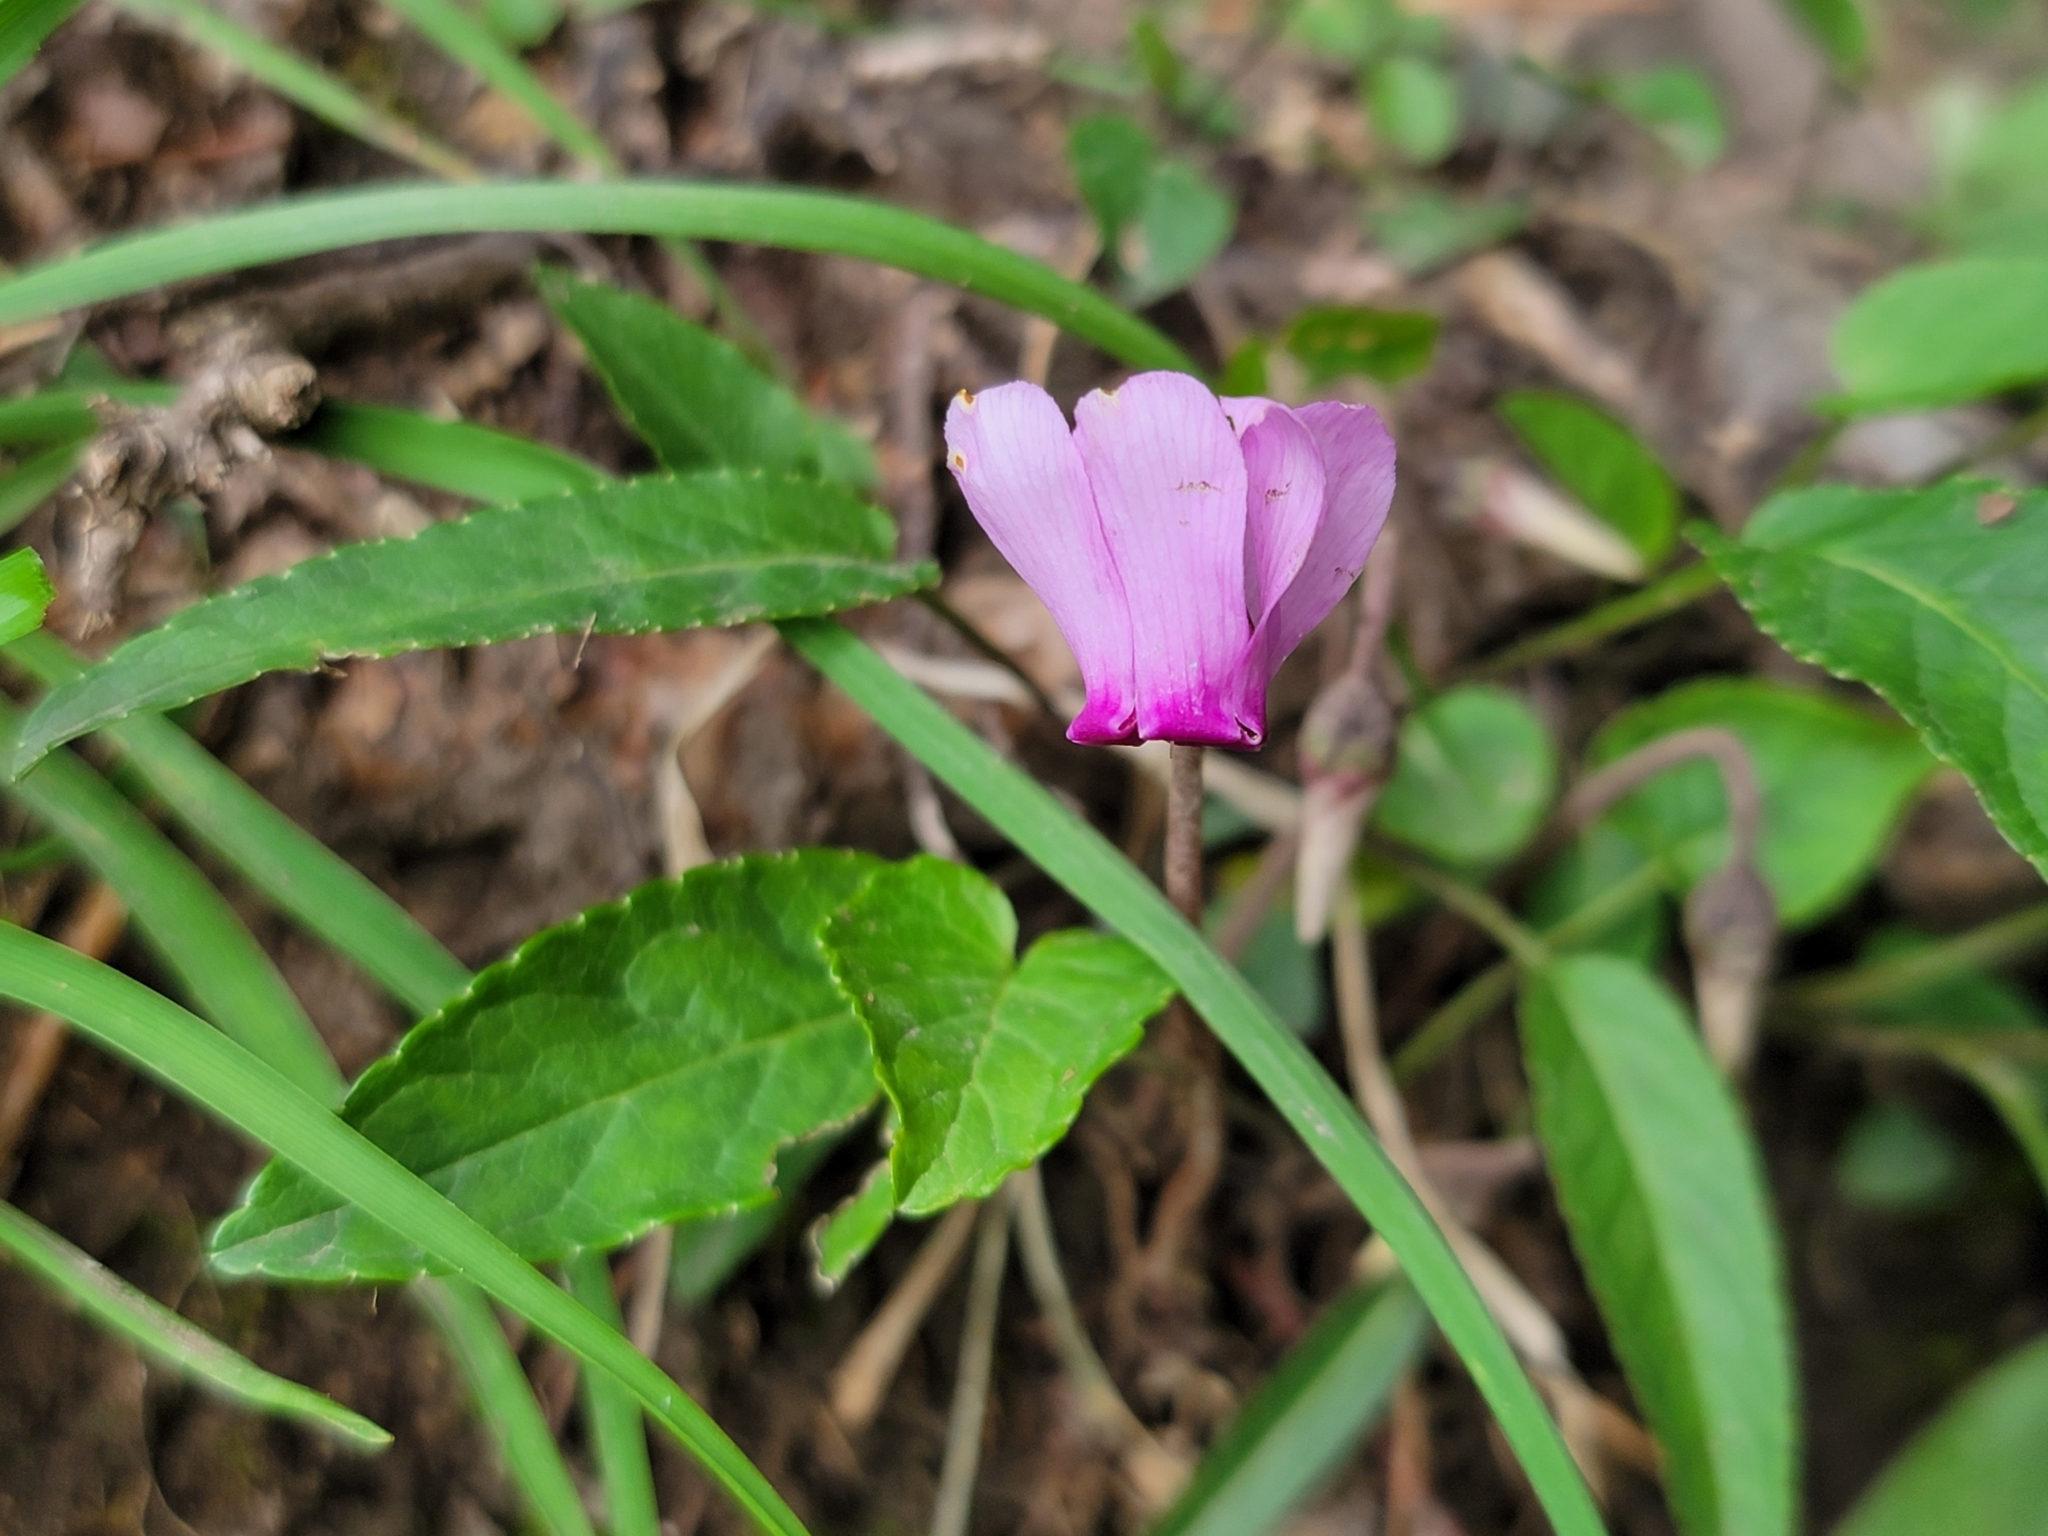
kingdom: Plantae
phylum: Tracheophyta
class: Magnoliopsida
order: Ericales
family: Primulaceae
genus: Cyclamen
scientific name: Cyclamen purpurascens
